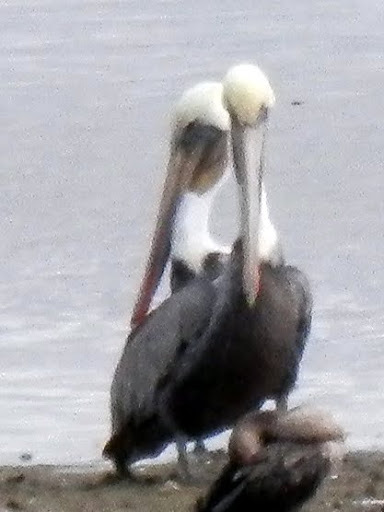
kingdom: Animalia
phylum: Chordata
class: Aves
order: Pelecaniformes
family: Pelecanidae
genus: Pelecanus
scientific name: Pelecanus occidentalis
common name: Brown pelican
